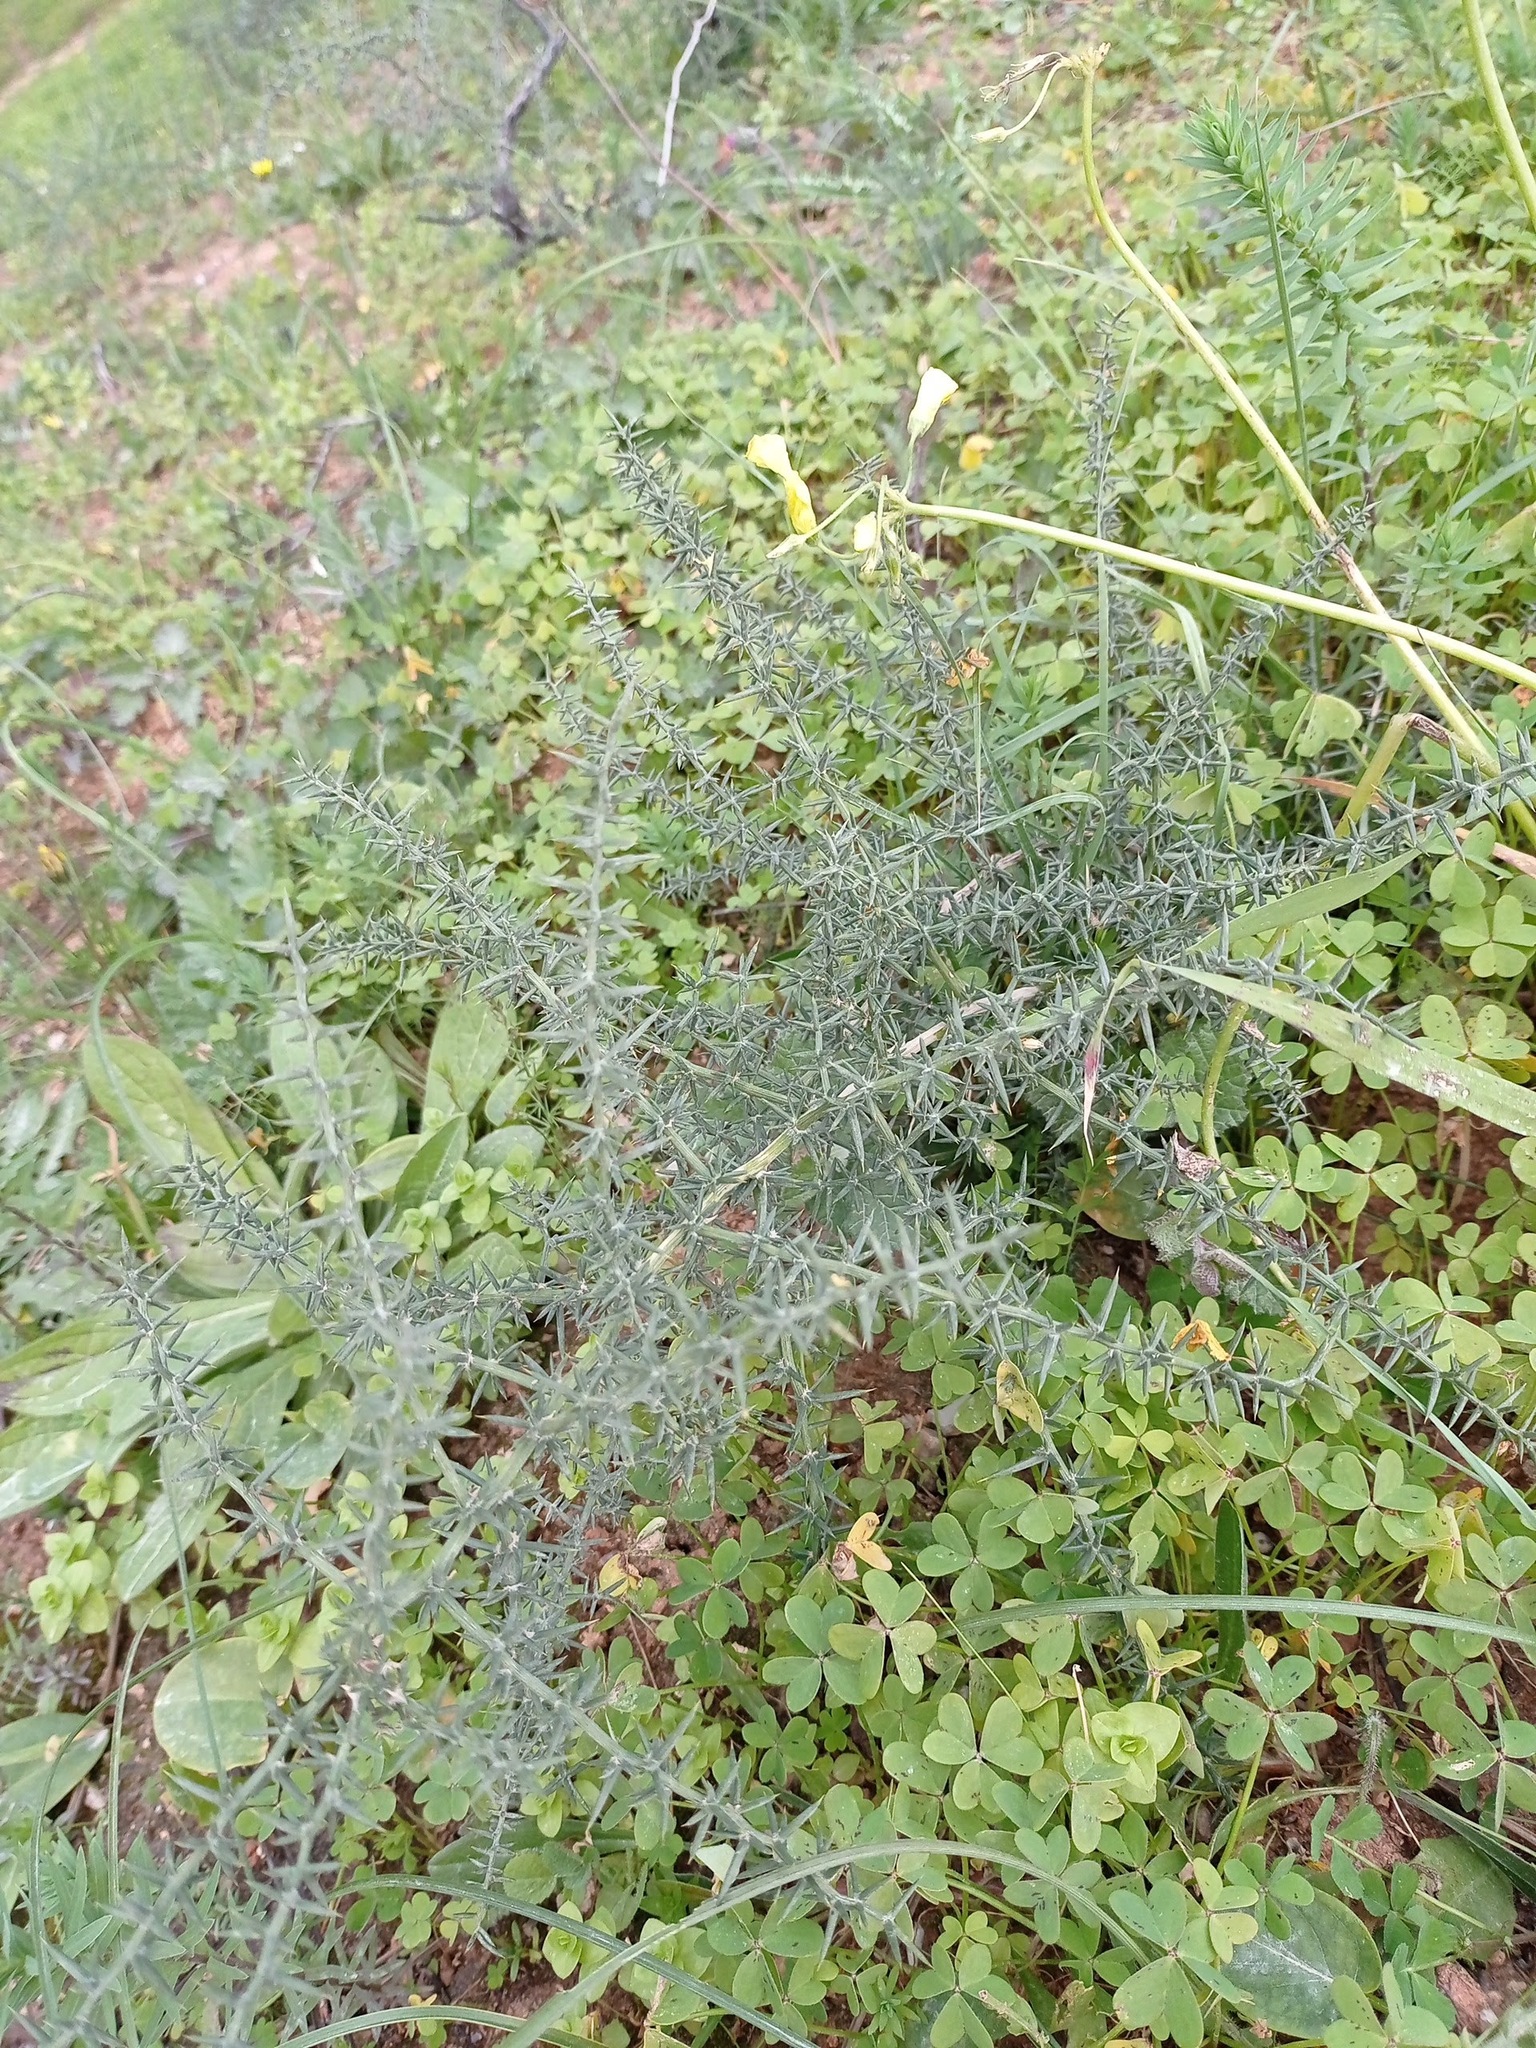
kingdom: Plantae
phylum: Tracheophyta
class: Liliopsida
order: Asparagales
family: Asparagaceae
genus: Asparagus
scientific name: Asparagus aphyllus
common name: Mediterranean asparagus
